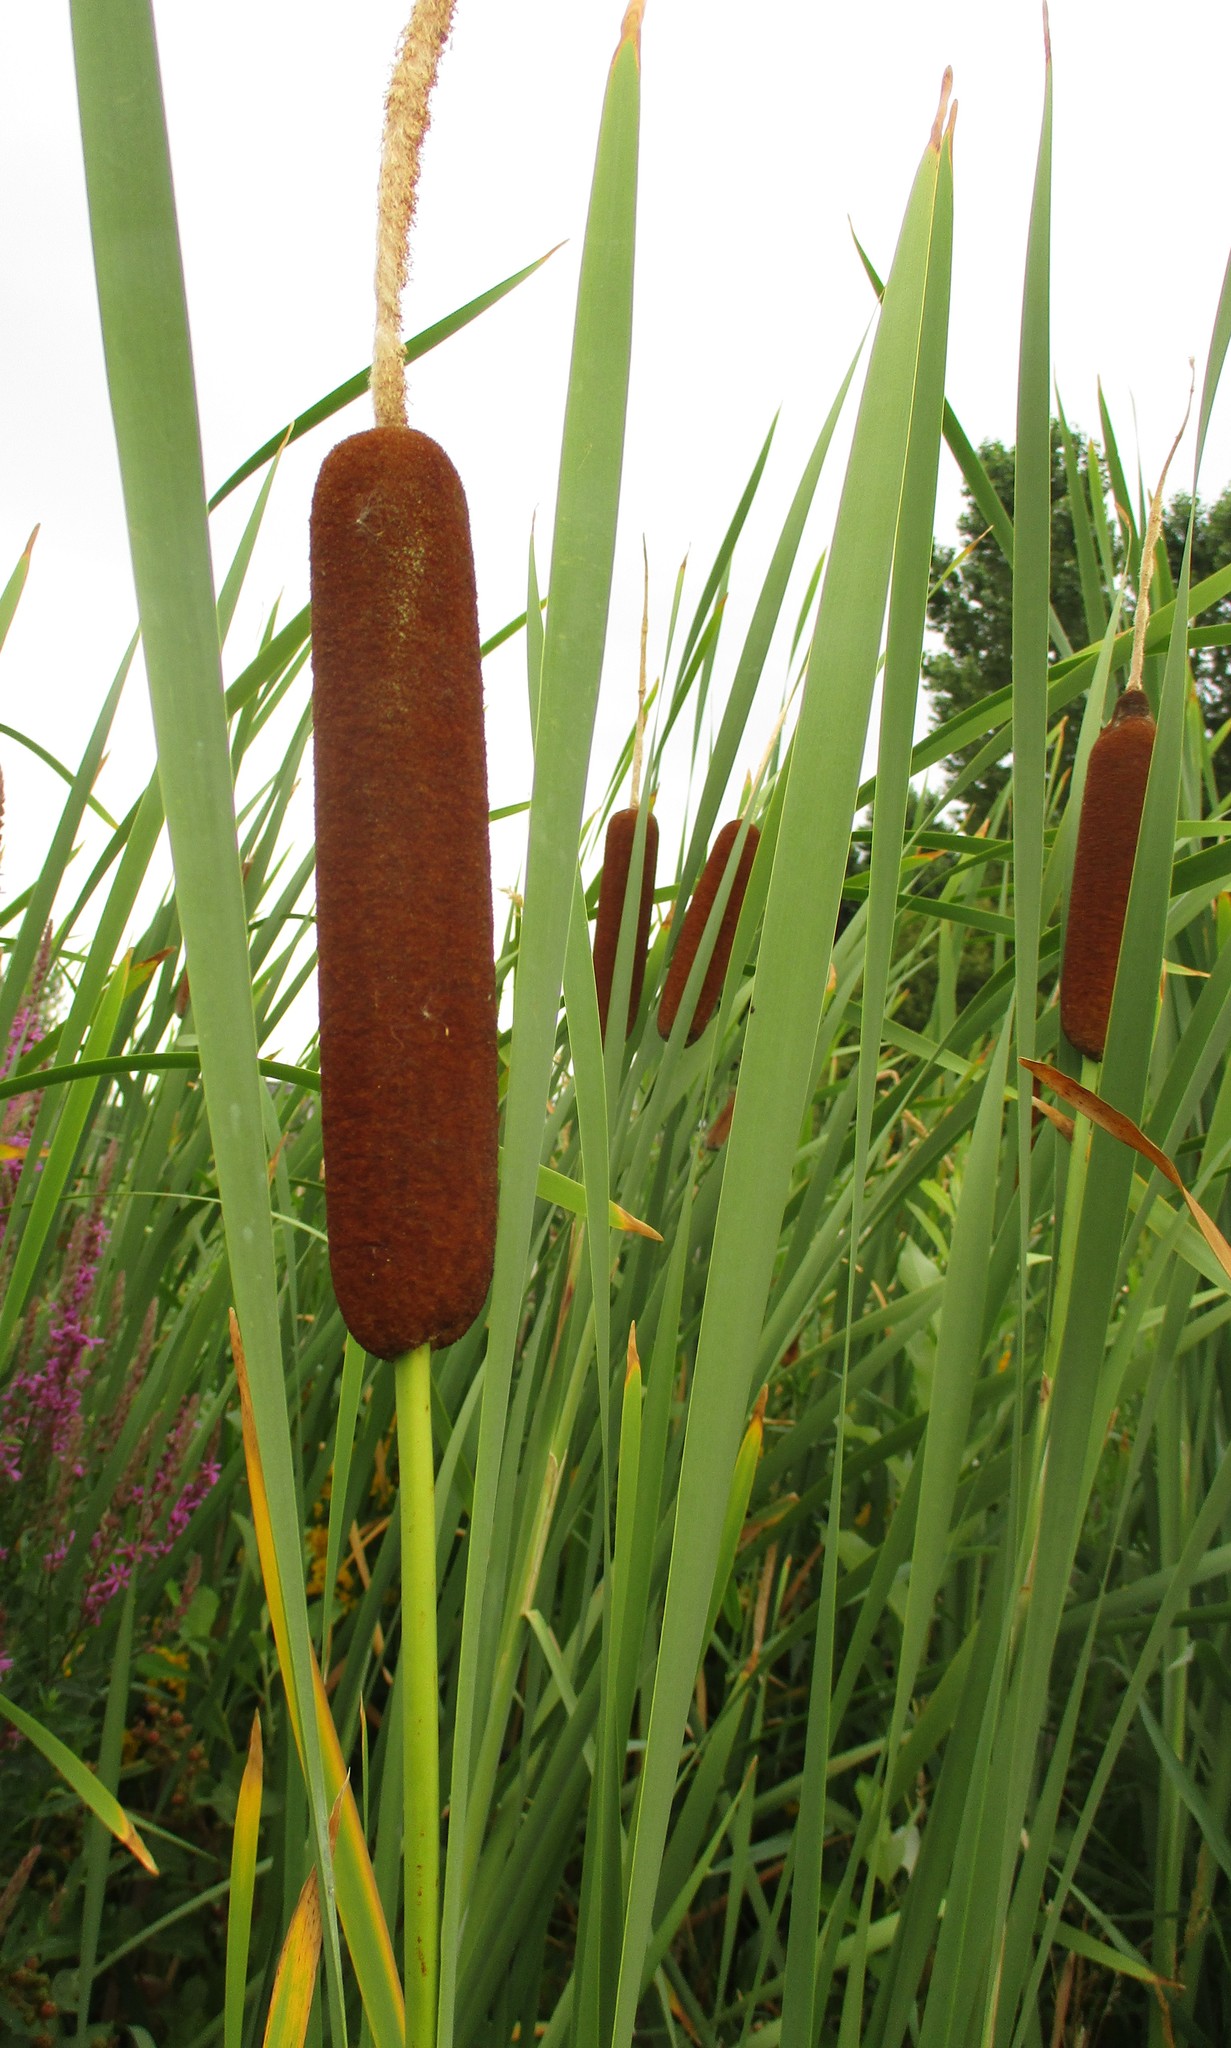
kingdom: Plantae
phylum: Tracheophyta
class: Liliopsida
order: Poales
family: Typhaceae
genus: Typha
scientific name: Typha latifolia
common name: Broadleaf cattail
